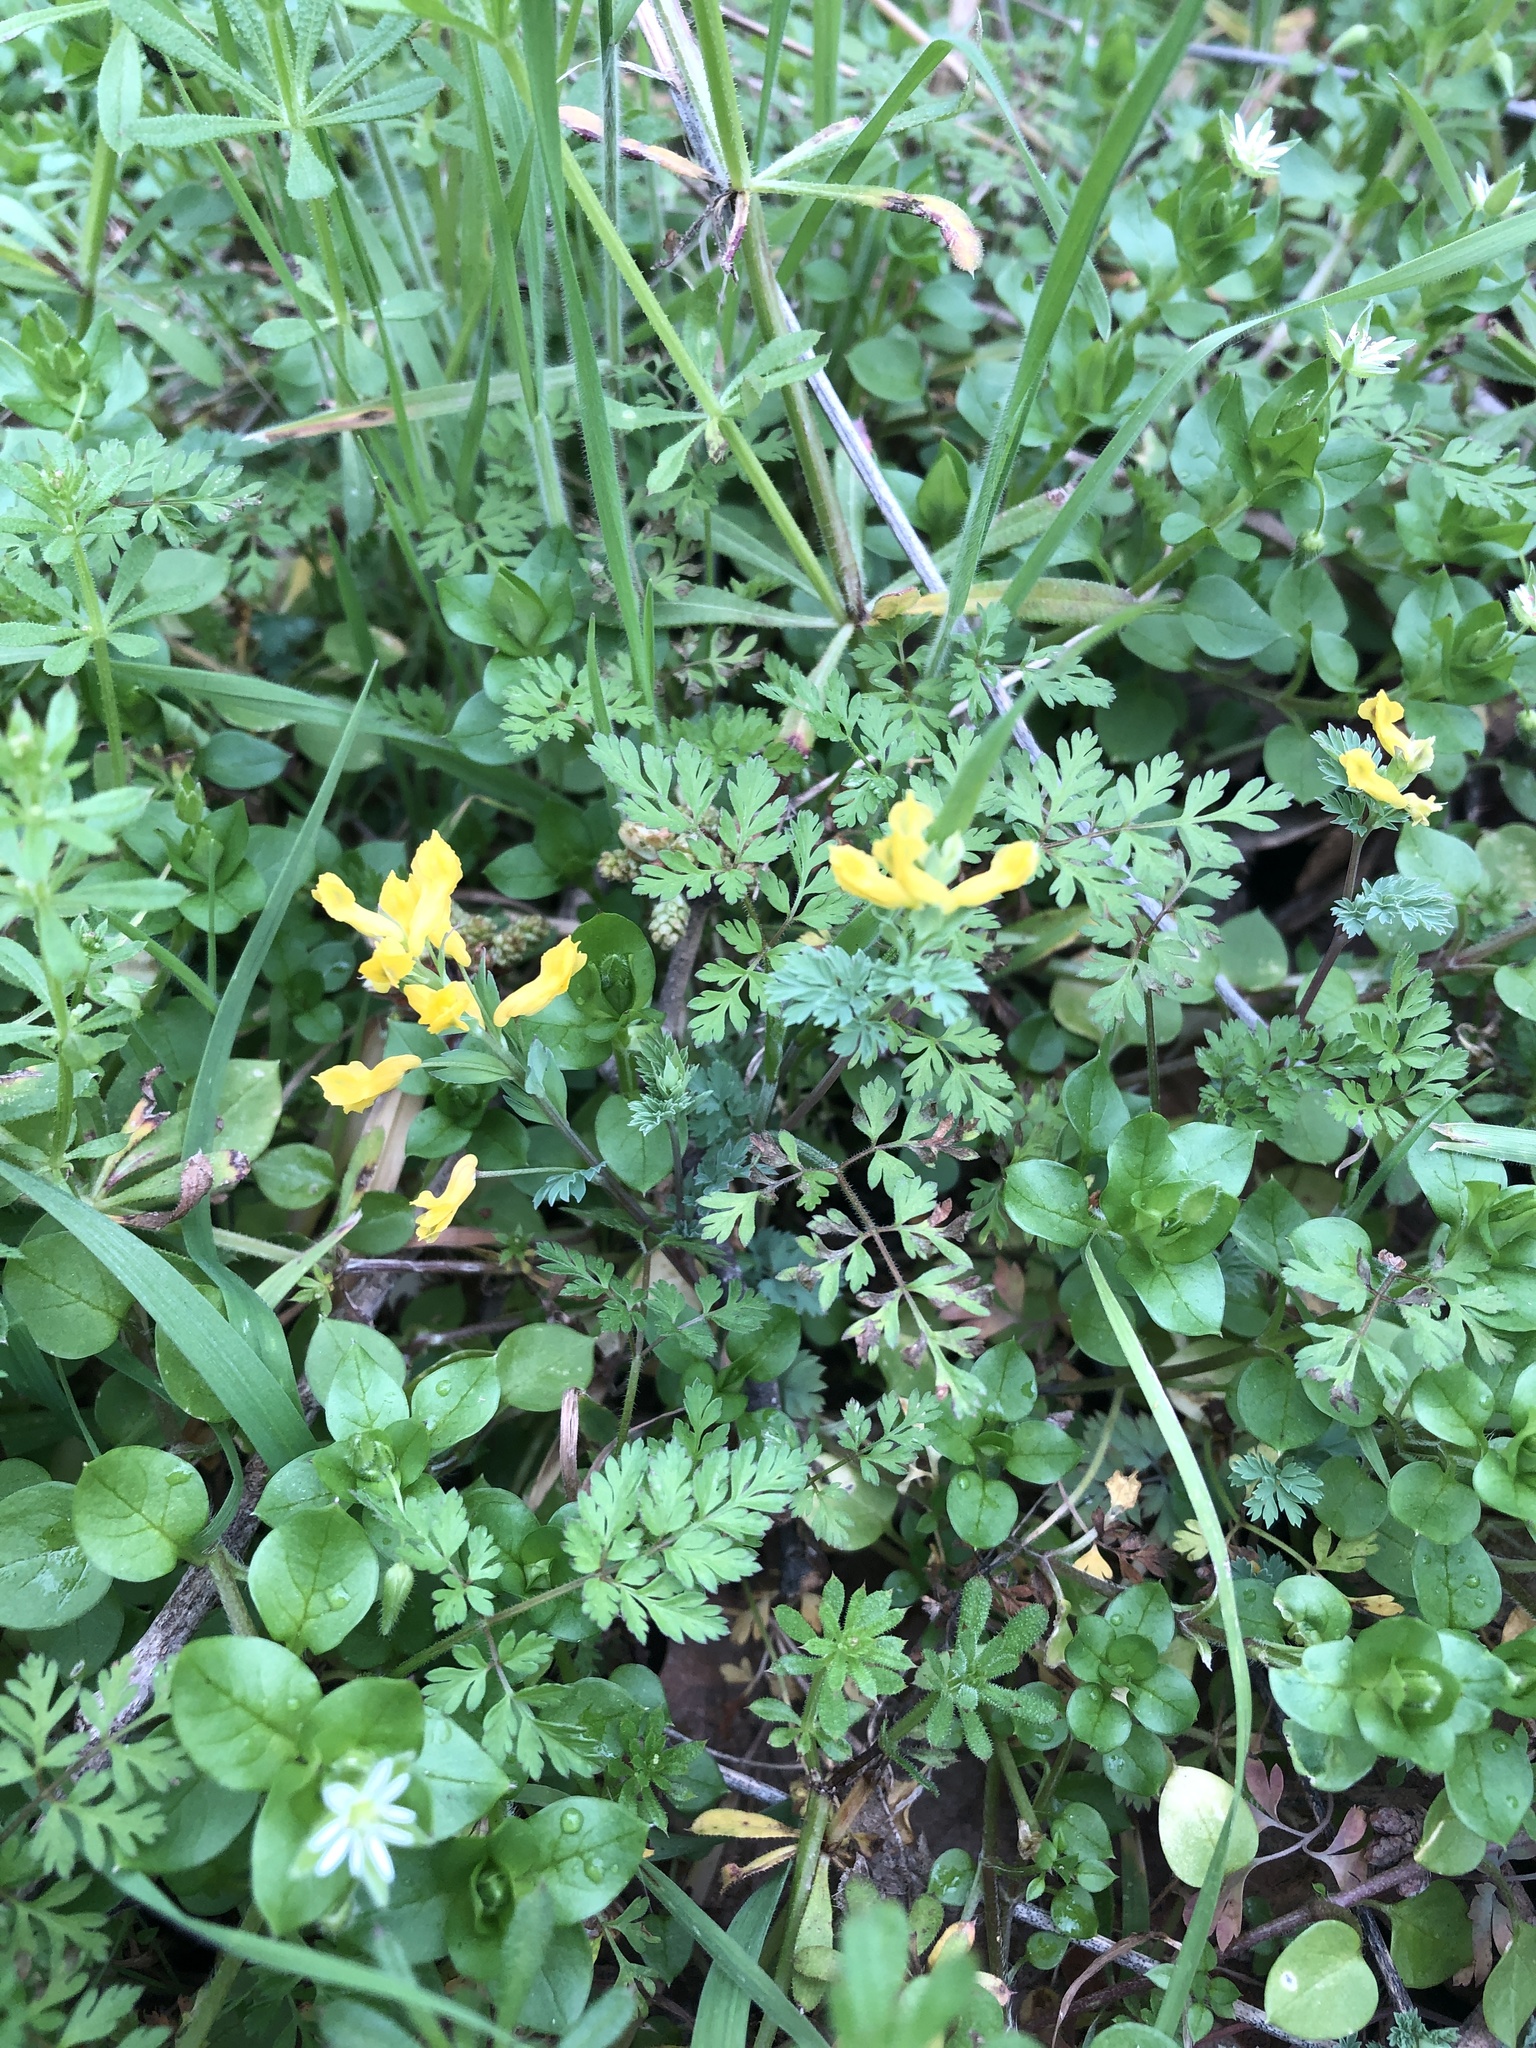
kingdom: Plantae
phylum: Tracheophyta
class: Magnoliopsida
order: Ranunculales
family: Papaveraceae
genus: Corydalis
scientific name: Corydalis micrantha
